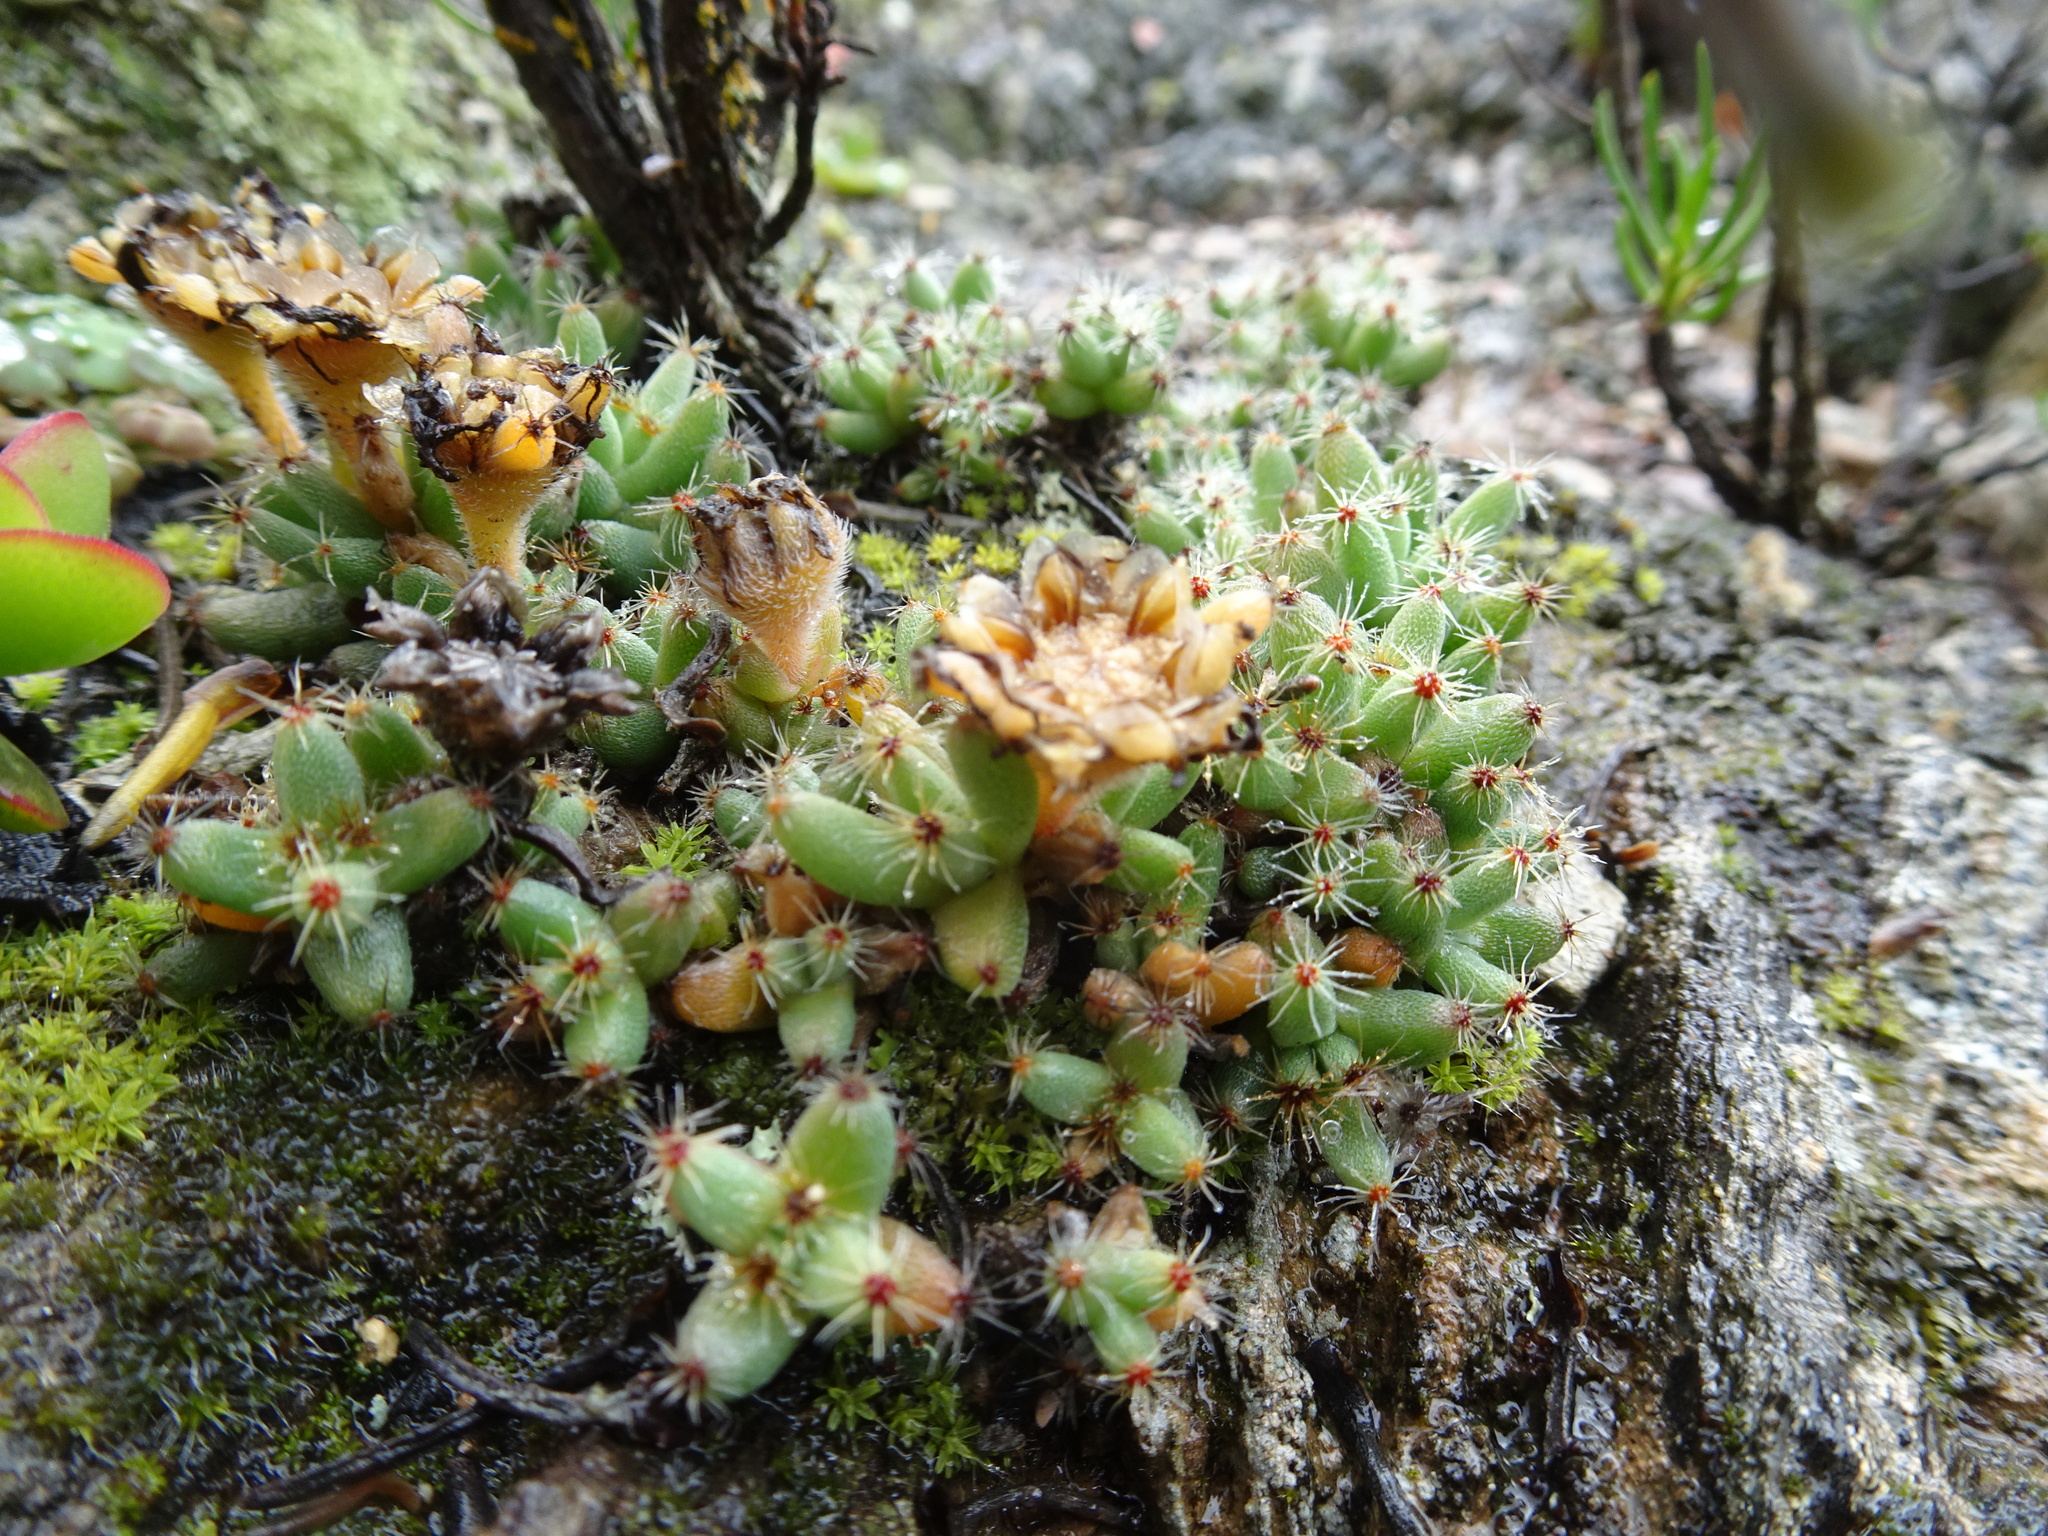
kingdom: Plantae
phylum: Tracheophyta
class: Magnoliopsida
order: Caryophyllales
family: Aizoaceae
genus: Trichodiadema
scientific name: Trichodiadema marlothii
